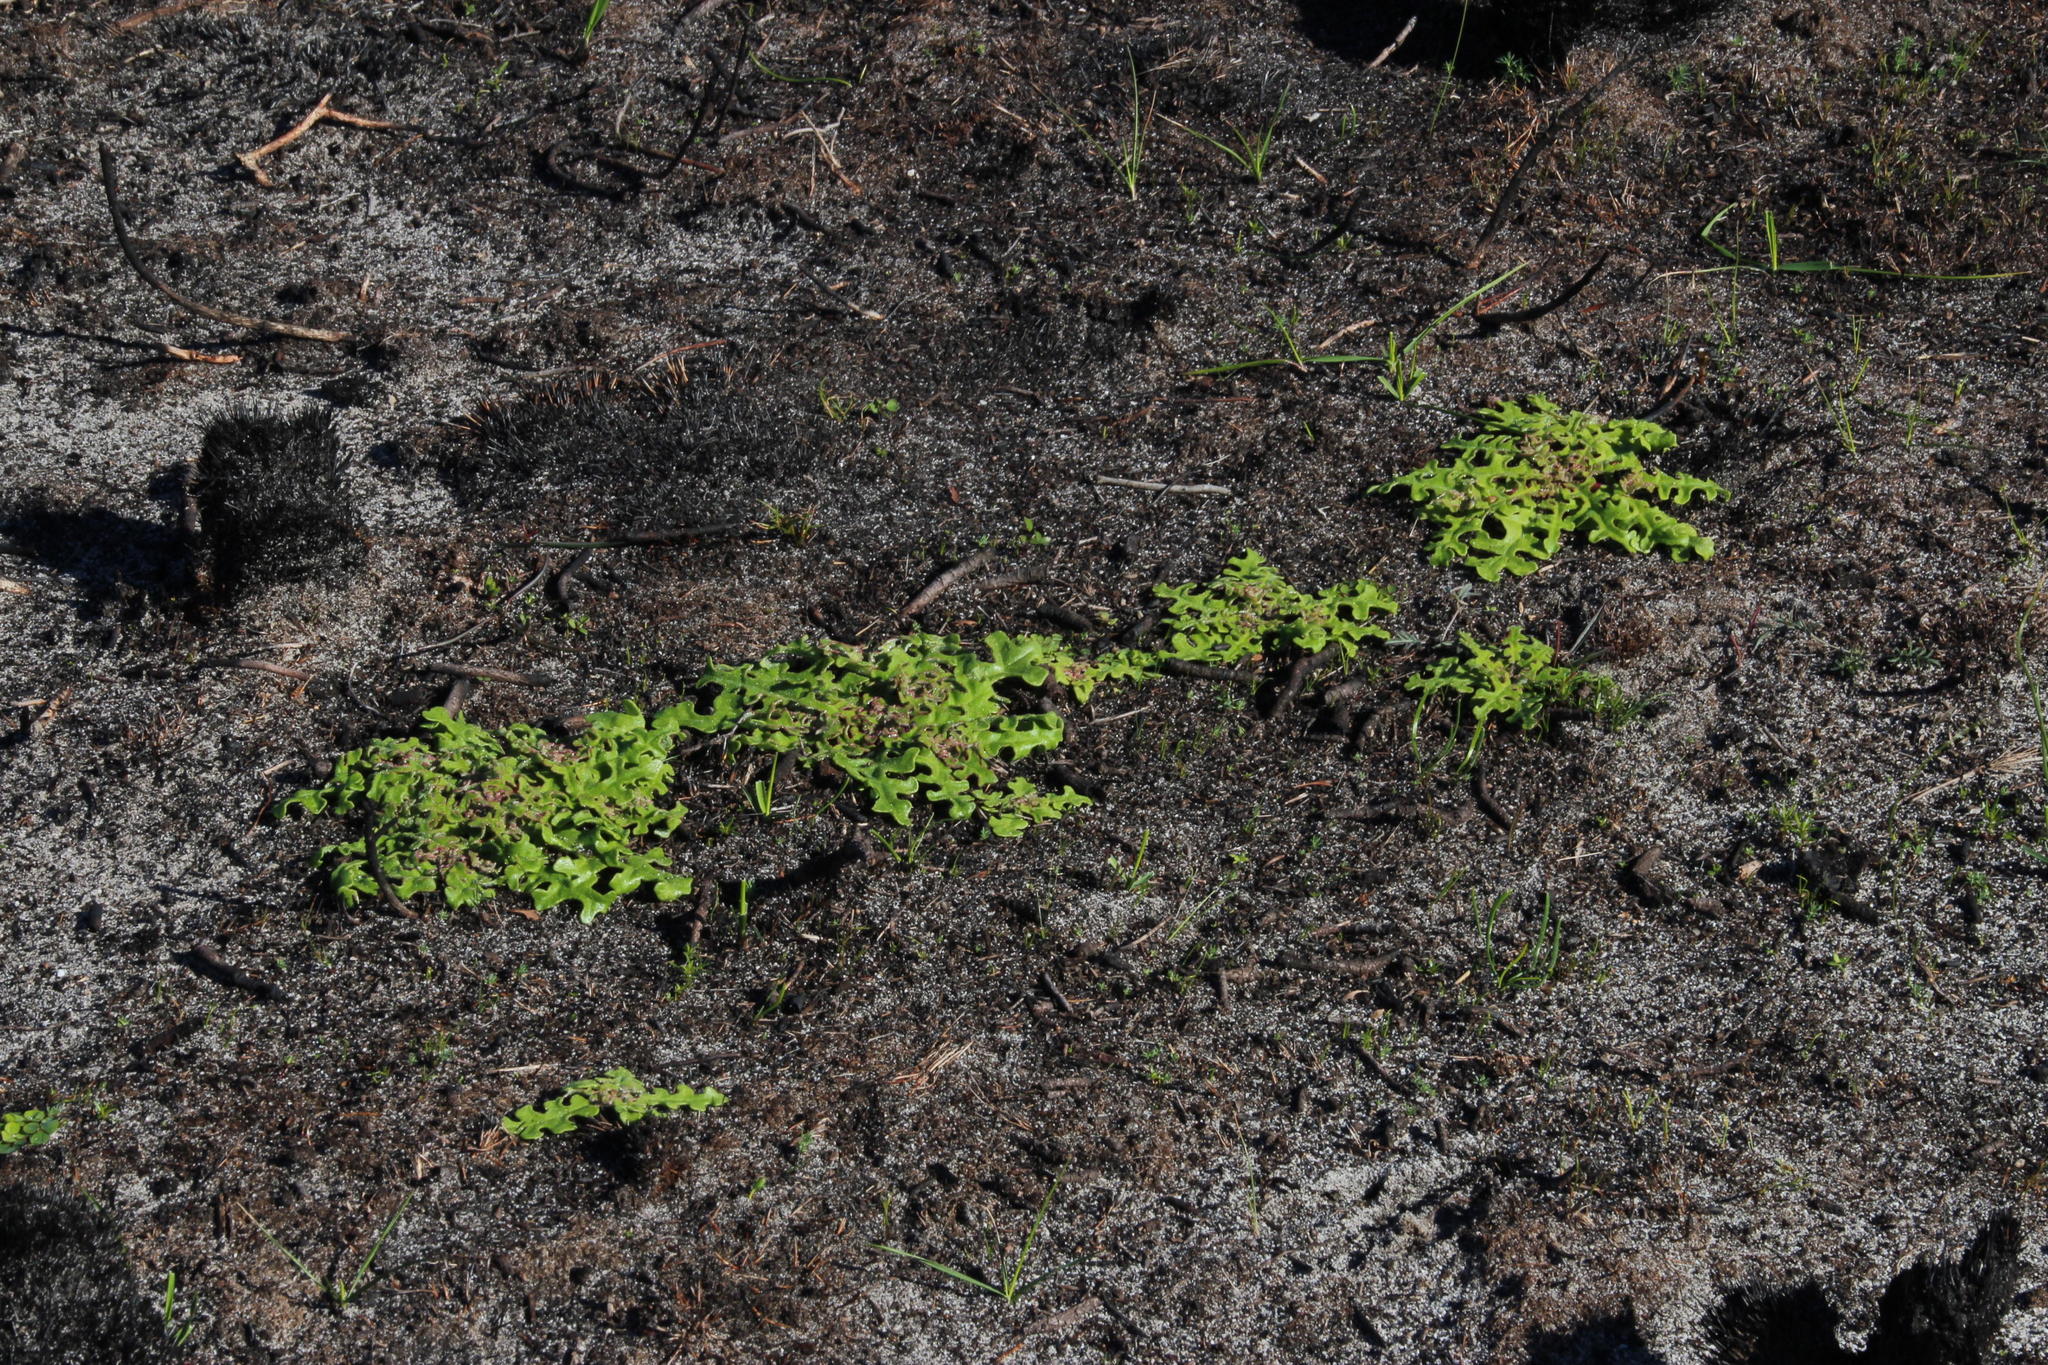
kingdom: Plantae
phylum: Tracheophyta
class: Magnoliopsida
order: Caryophyllales
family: Aizoaceae
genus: Cleretum
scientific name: Cleretum herrei
